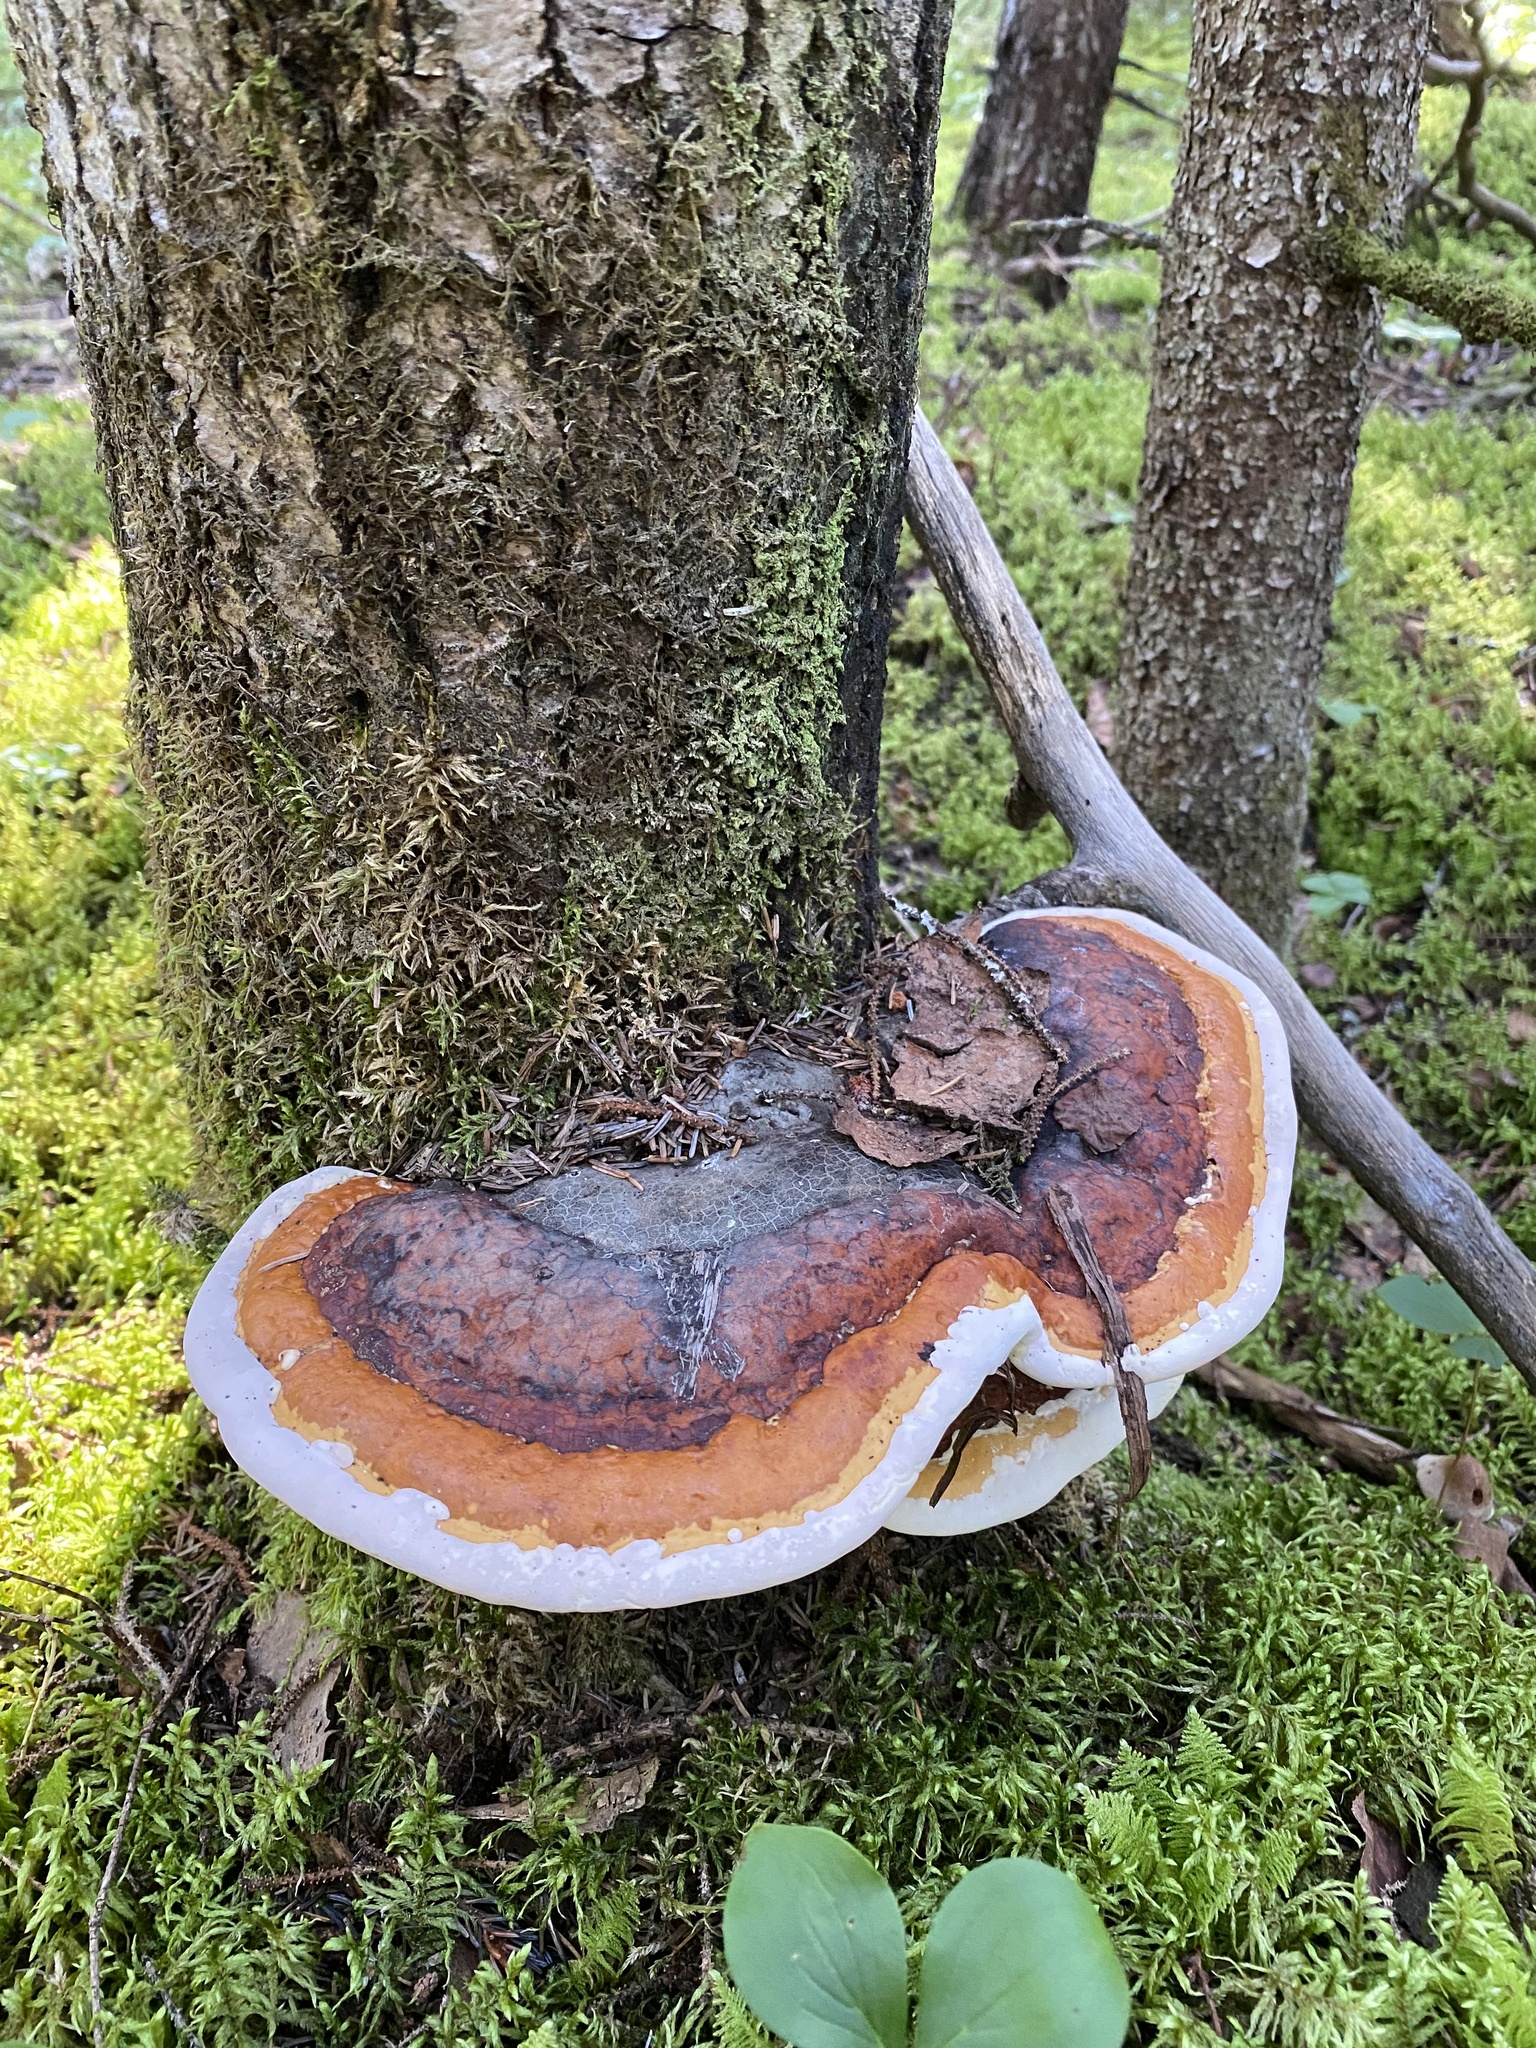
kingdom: Fungi
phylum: Basidiomycota
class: Agaricomycetes
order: Polyporales
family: Fomitopsidaceae
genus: Fomitopsis
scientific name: Fomitopsis mounceae
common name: Northern red belt
